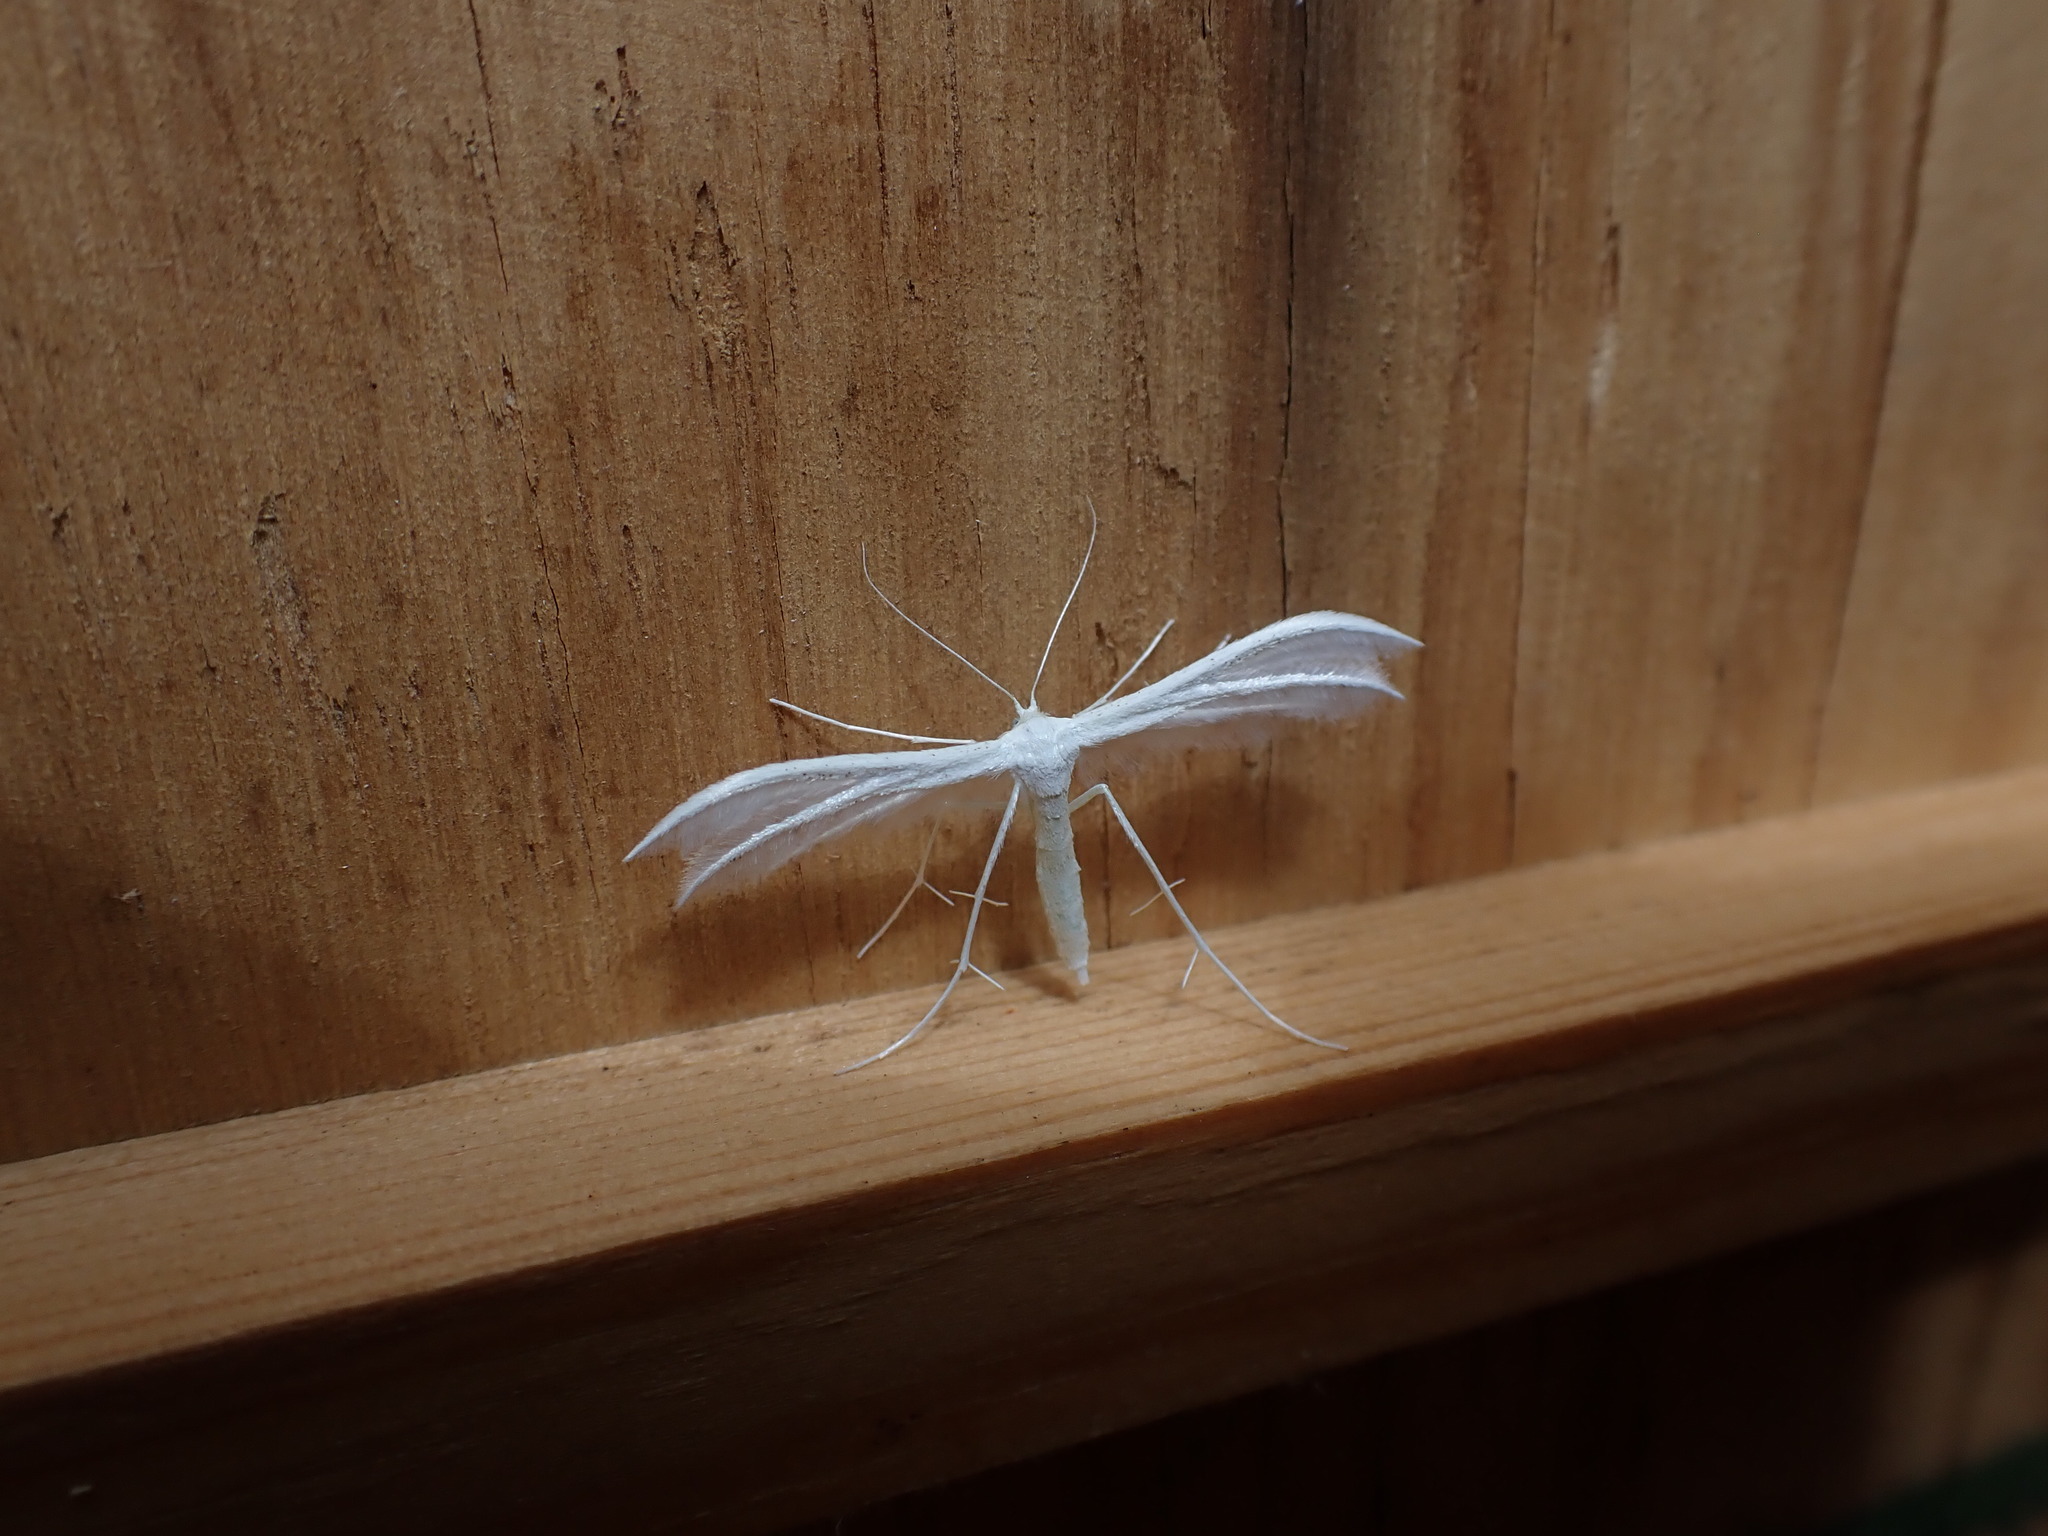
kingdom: Animalia
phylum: Arthropoda
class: Insecta
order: Lepidoptera
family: Pterophoridae
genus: Pterophorus
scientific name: Pterophorus pentadactyla
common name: White plume moth
